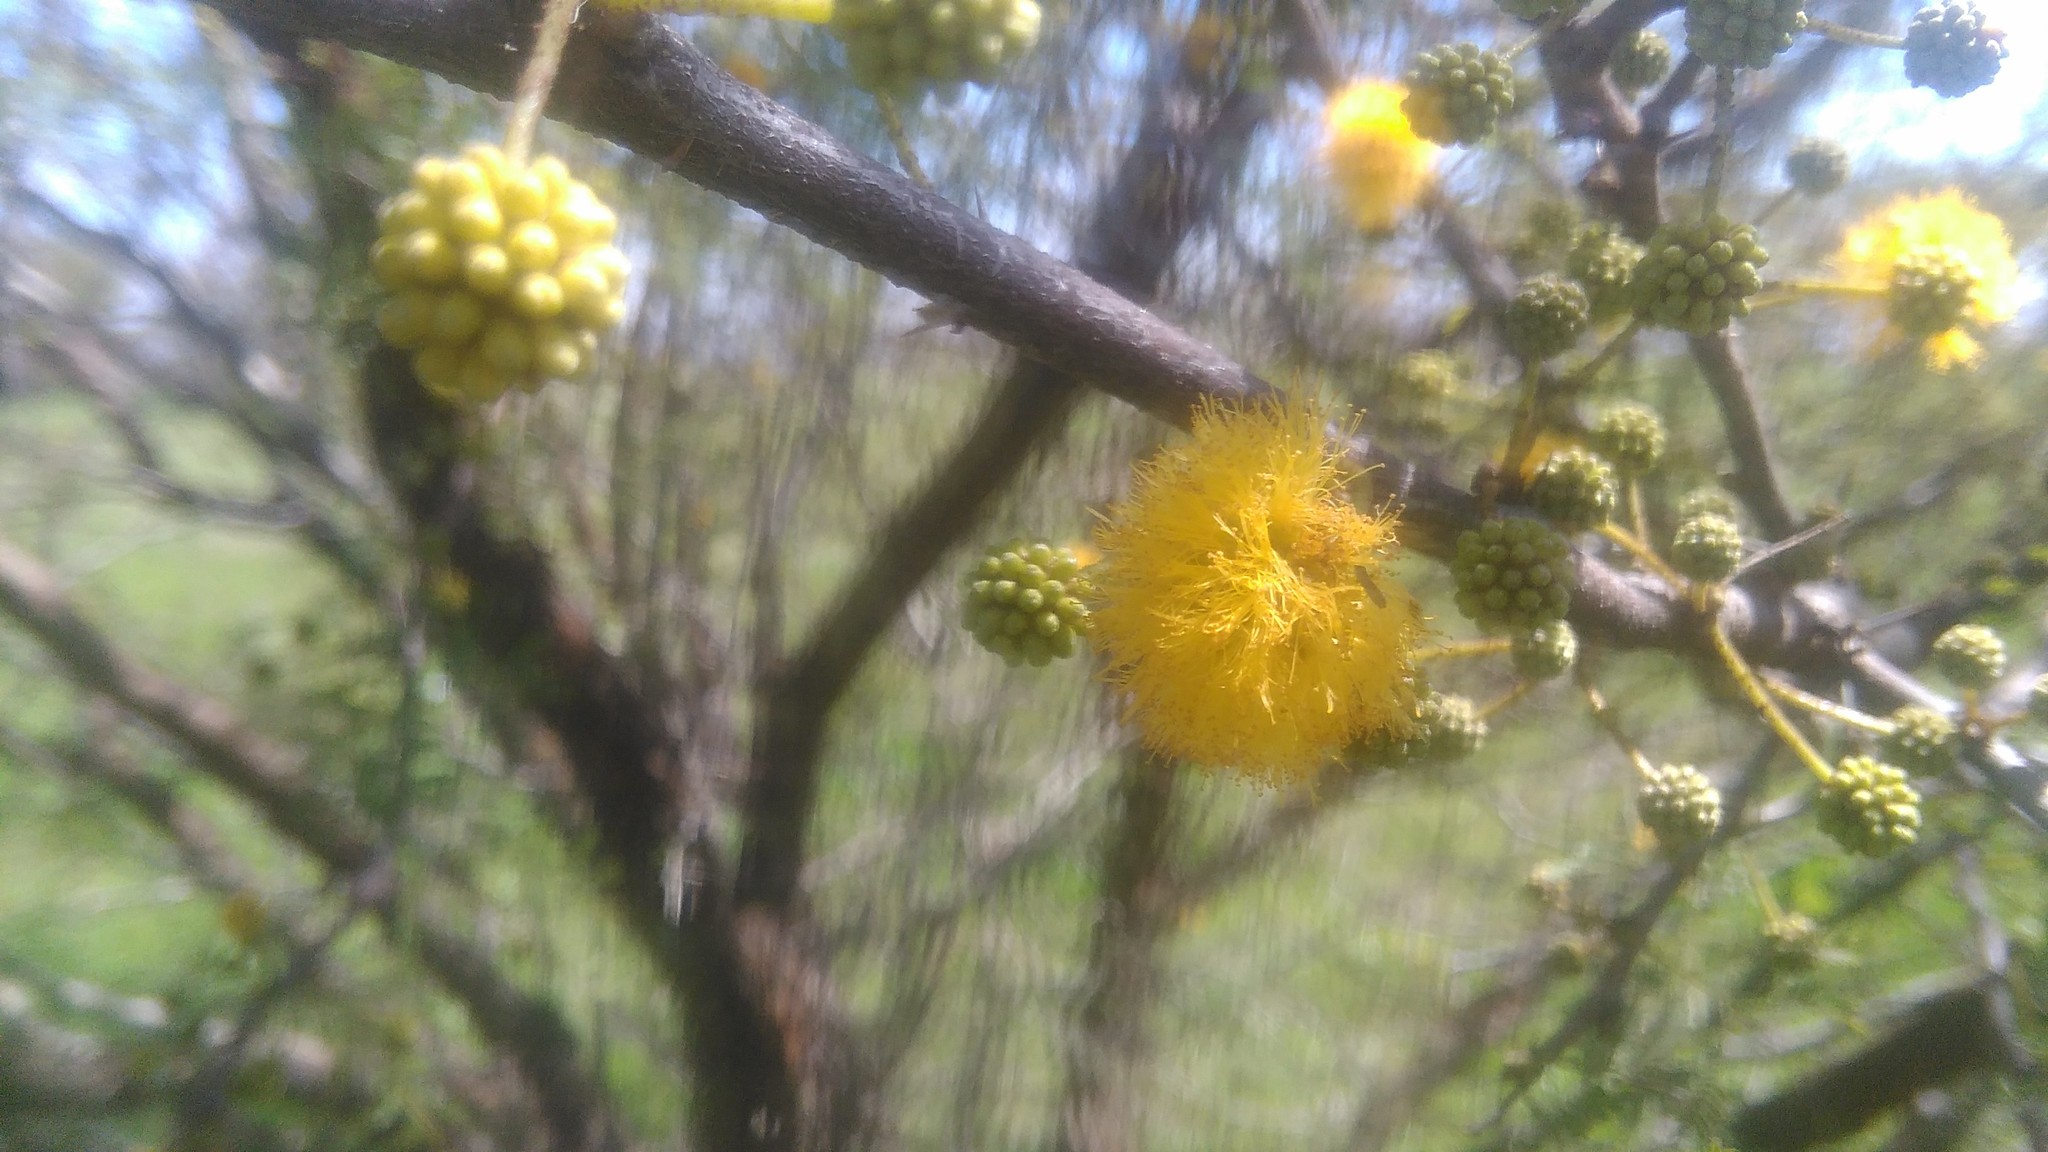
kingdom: Plantae
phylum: Tracheophyta
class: Magnoliopsida
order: Fabales
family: Fabaceae
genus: Vachellia
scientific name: Vachellia caven
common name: Roman cassie
